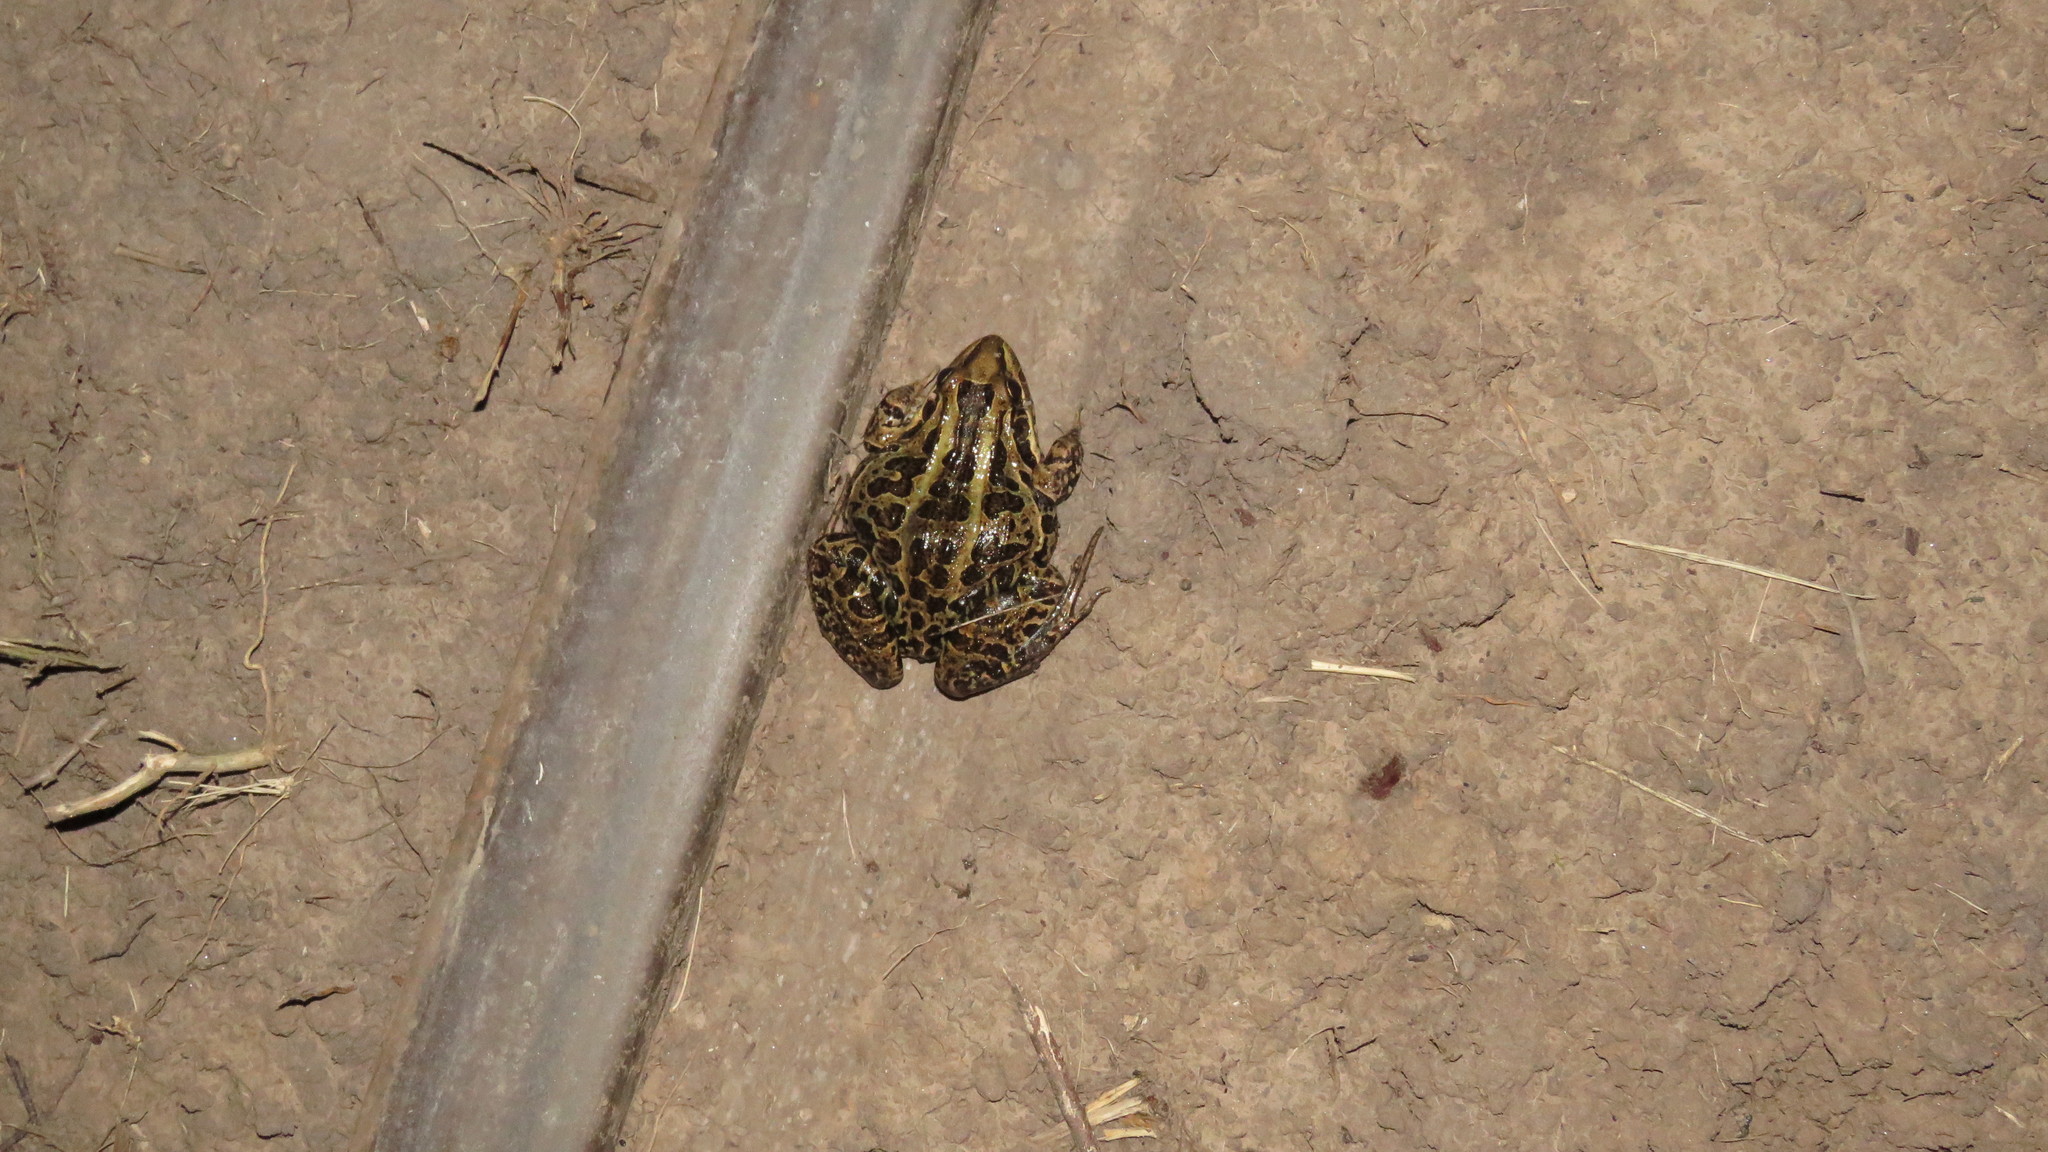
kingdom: Animalia
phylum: Chordata
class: Amphibia
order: Anura
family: Leptodactylidae
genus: Leptodactylus
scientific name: Leptodactylus macrosternum
